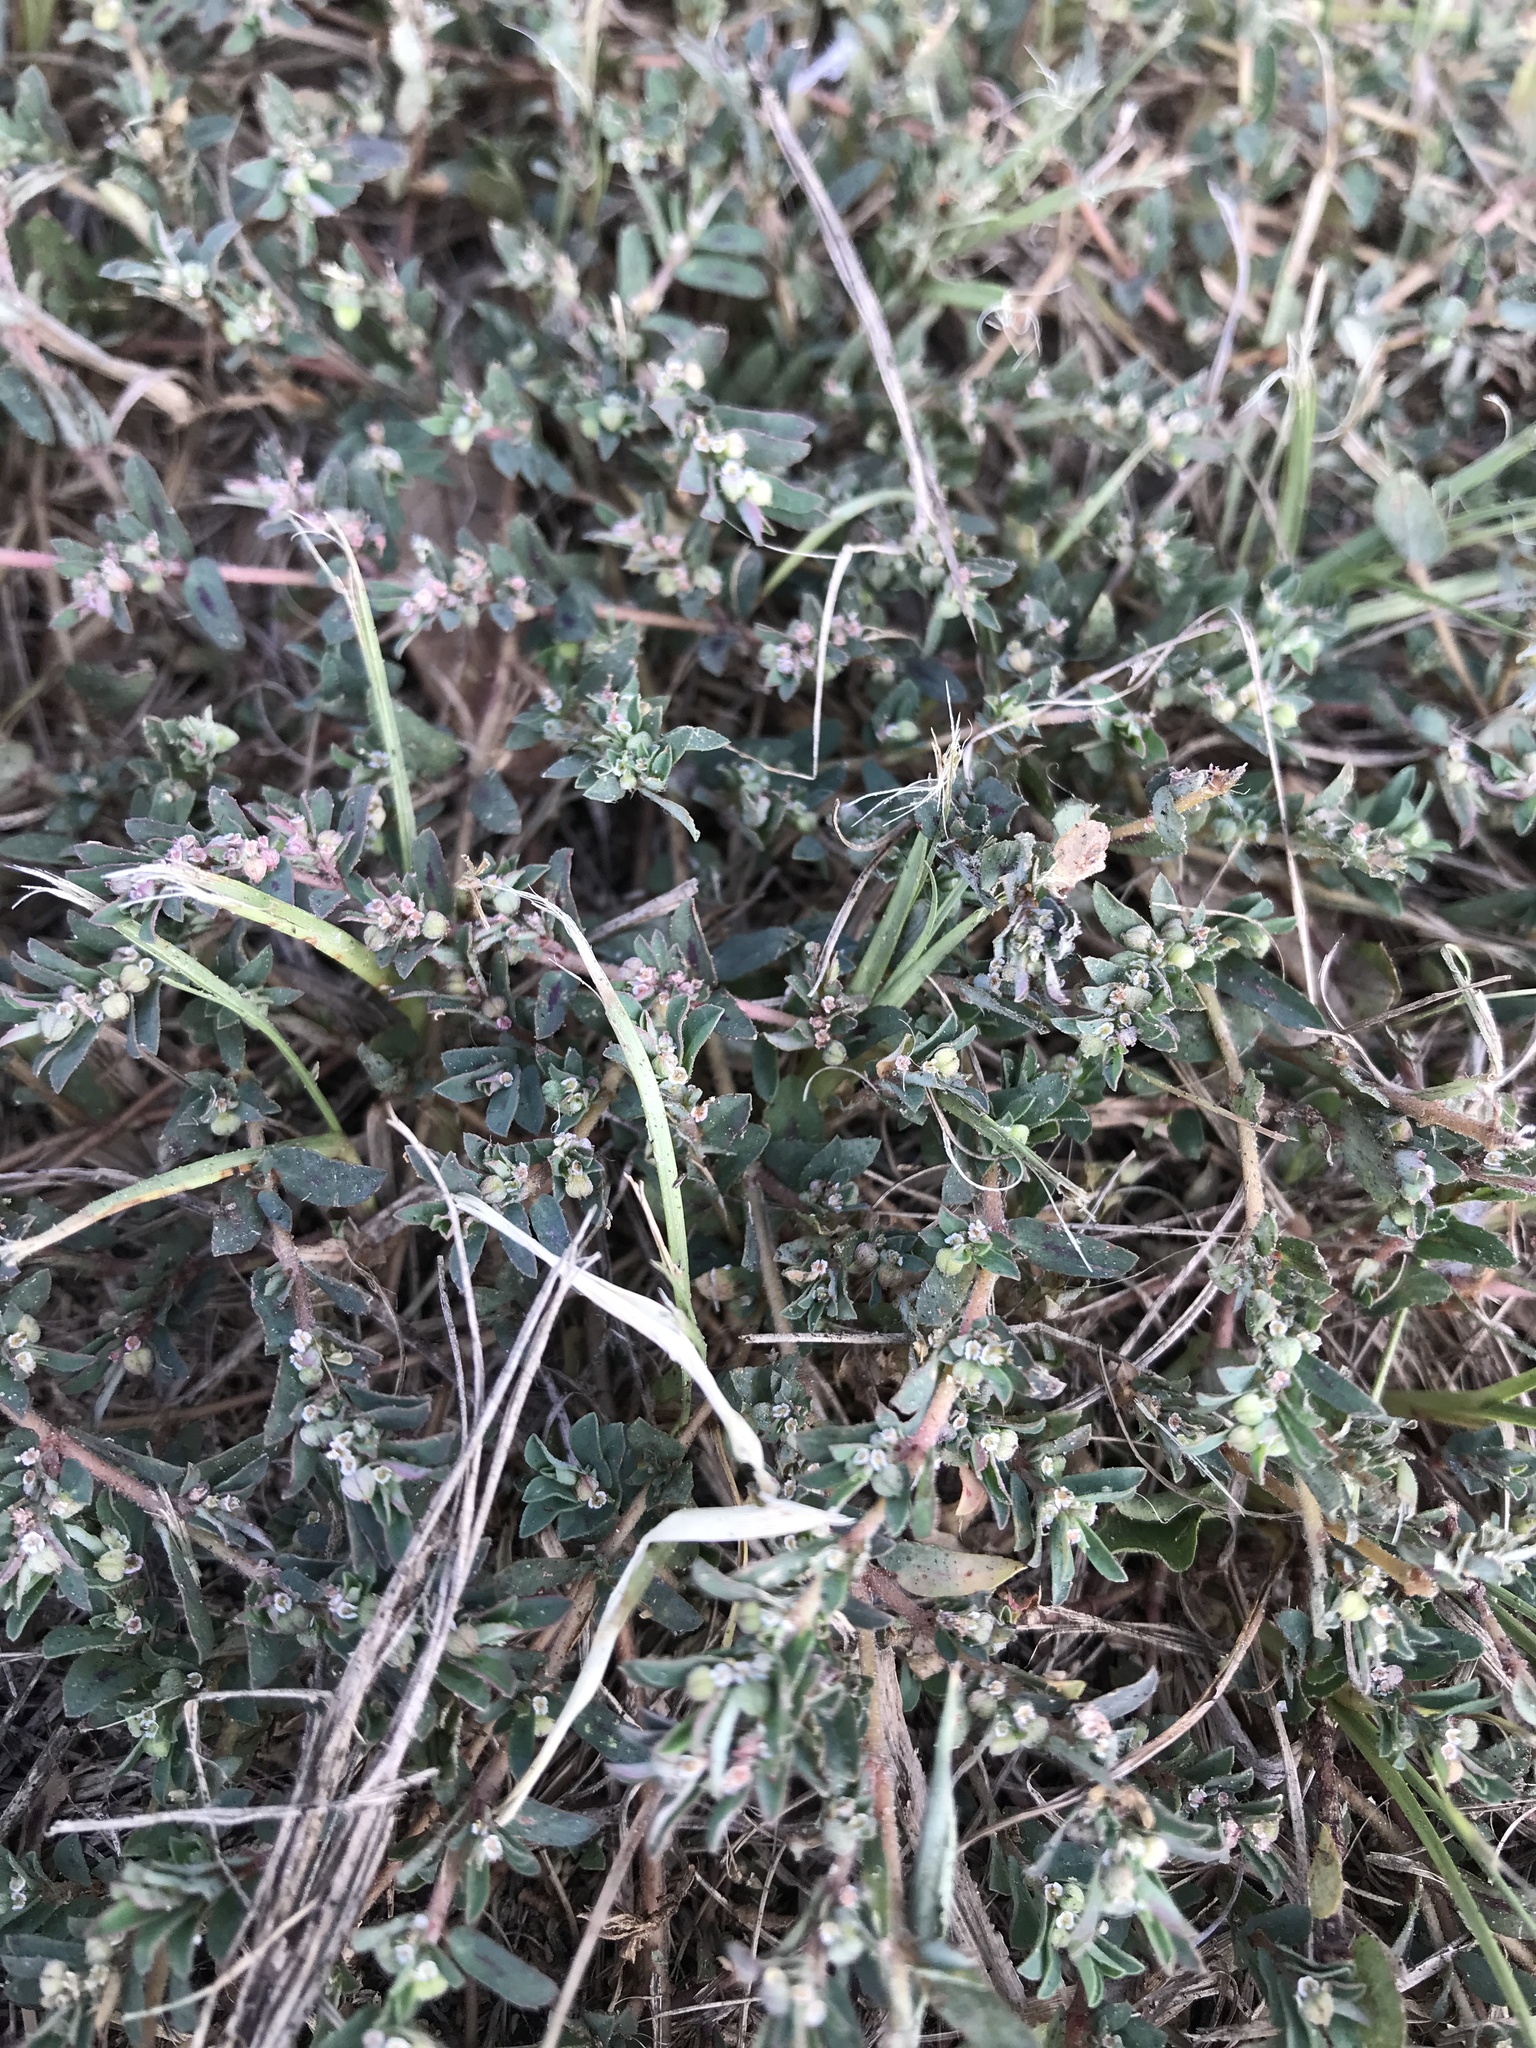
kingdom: Plantae
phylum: Tracheophyta
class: Magnoliopsida
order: Malpighiales
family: Euphorbiaceae
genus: Euphorbia
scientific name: Euphorbia maculata
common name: Spotted spurge
